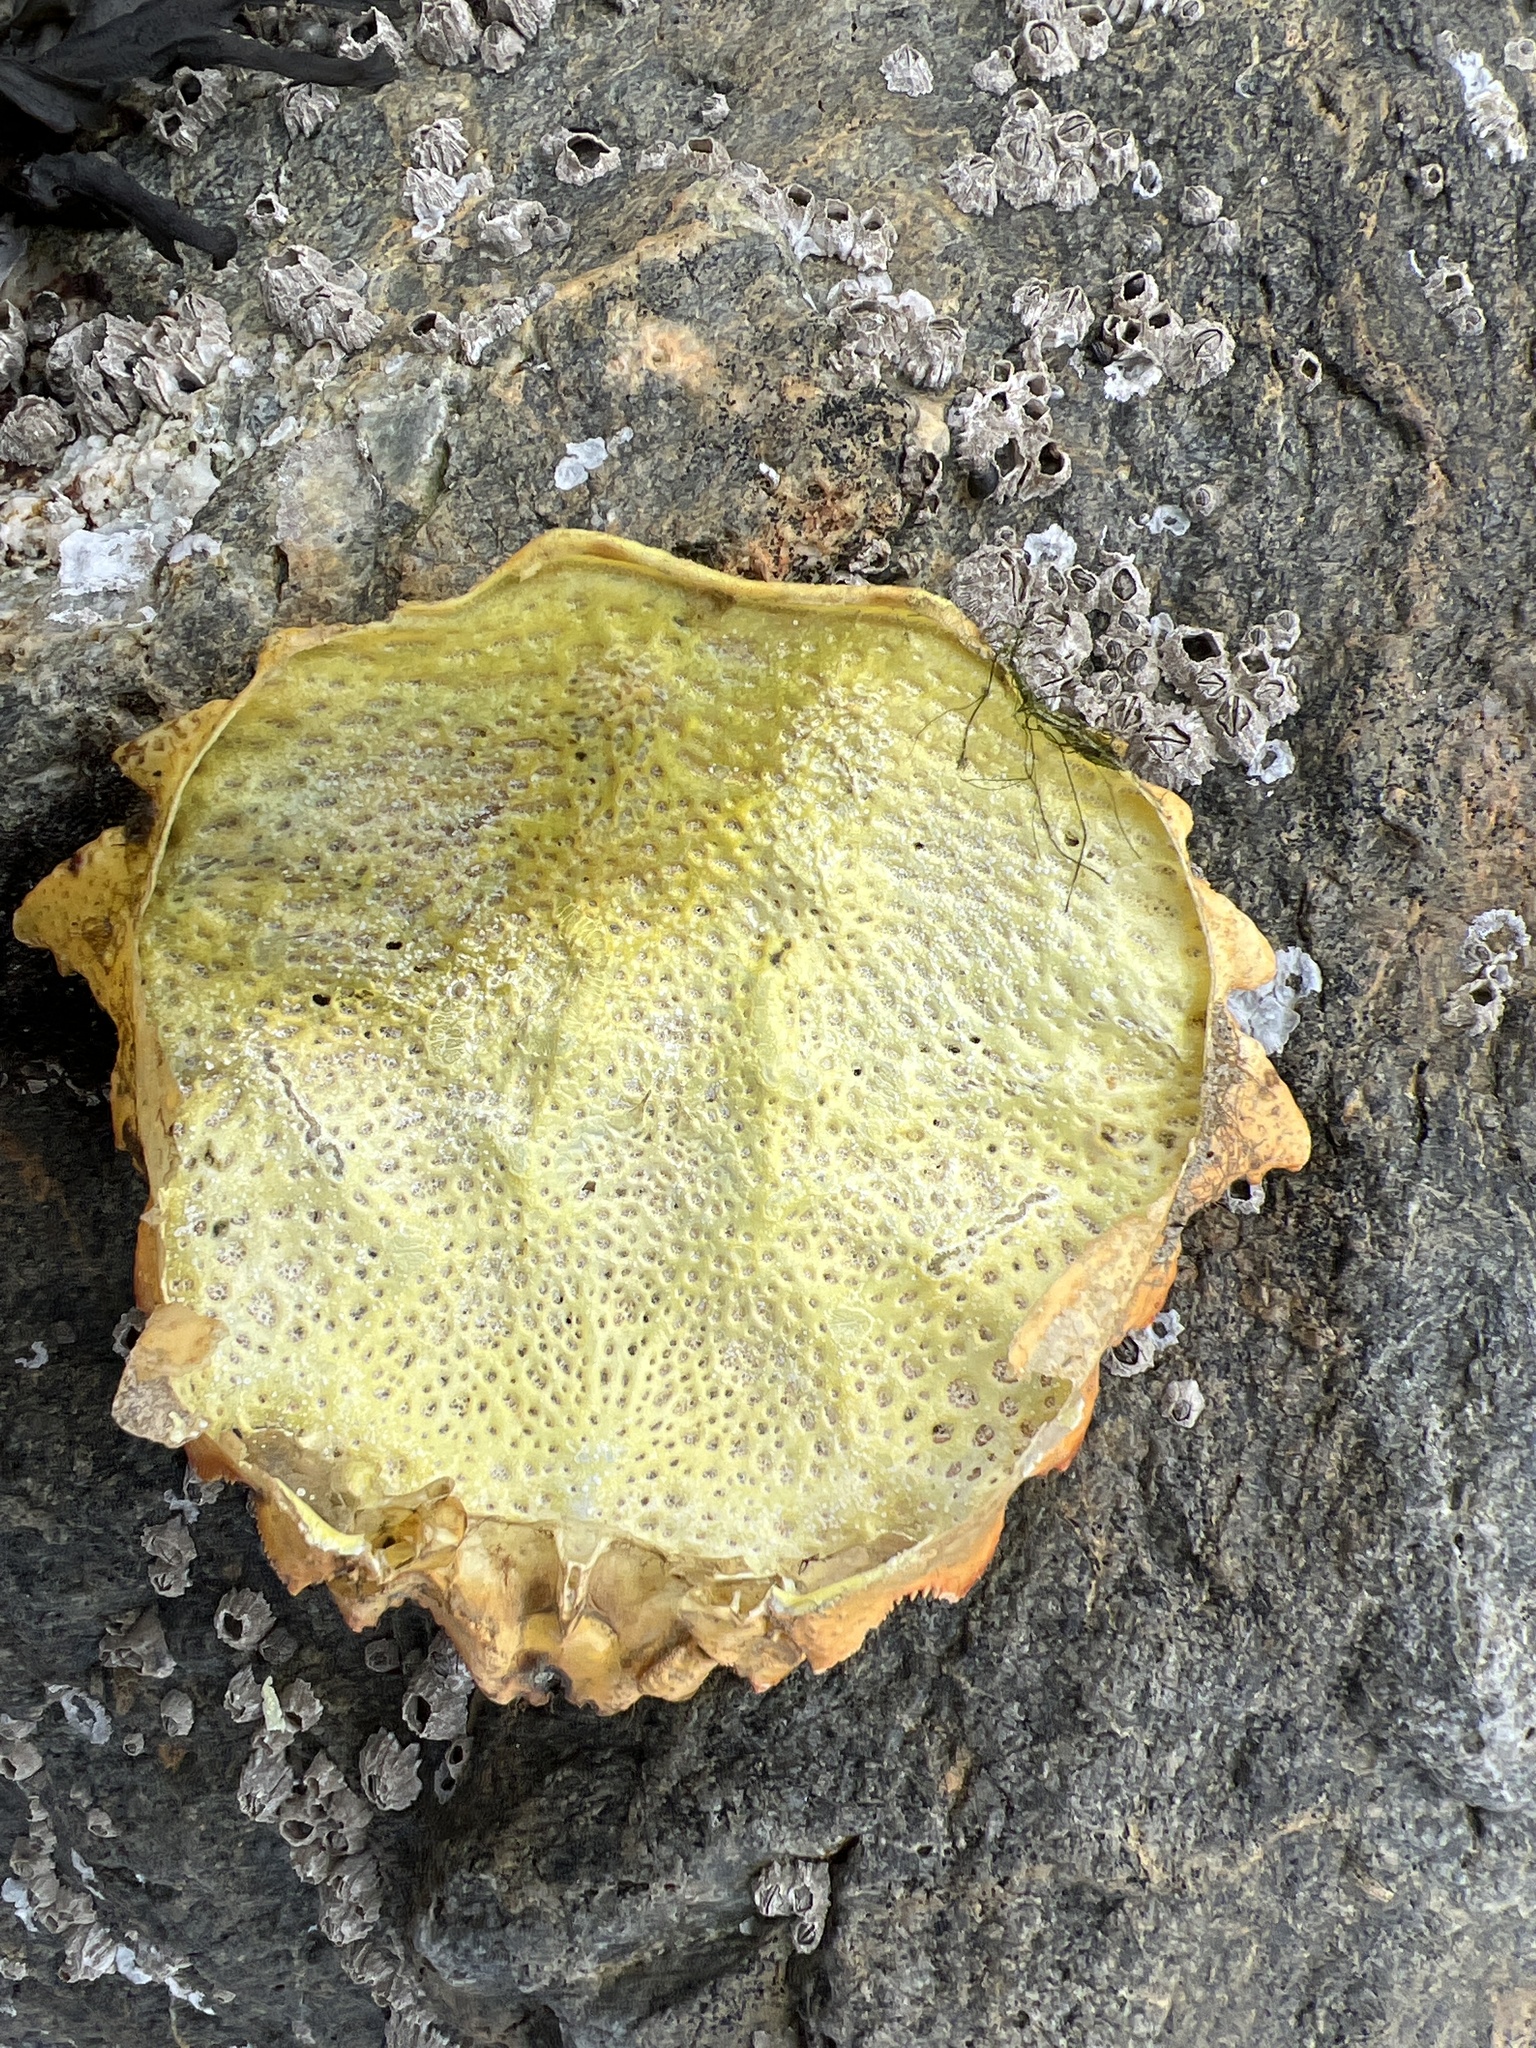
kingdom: Animalia
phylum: Arthropoda
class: Malacostraca
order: Decapoda
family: Cheiragonidae
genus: Telmessus
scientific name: Telmessus cheiragonus
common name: Helmet crab
